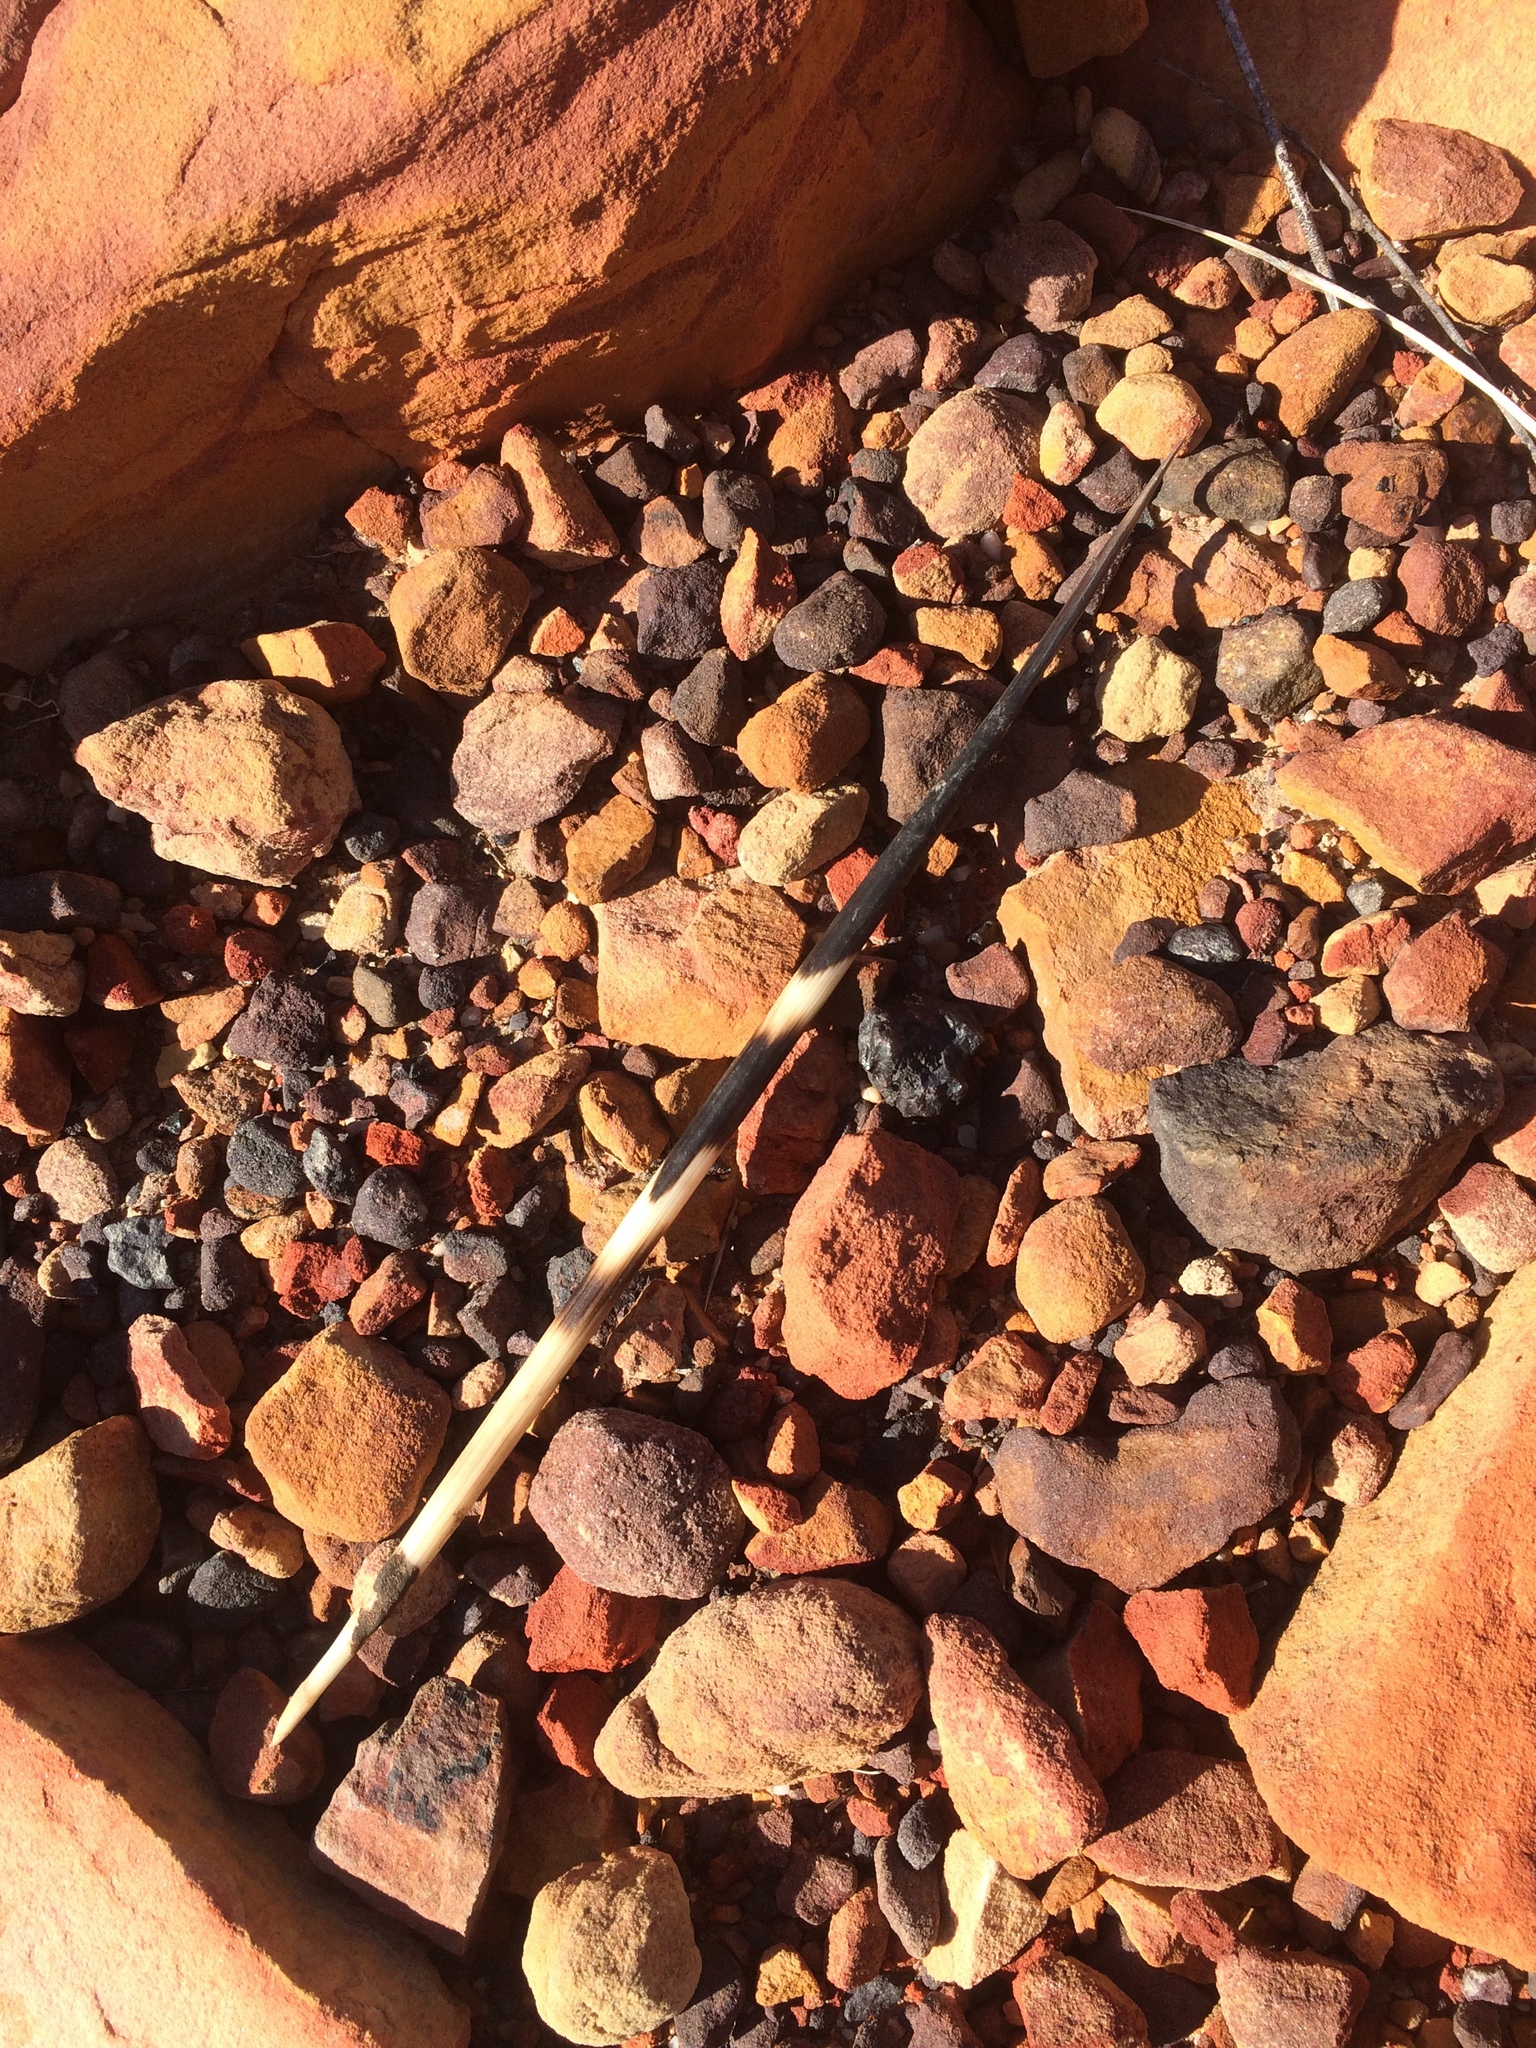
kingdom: Animalia
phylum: Chordata
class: Mammalia
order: Rodentia
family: Hystricidae
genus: Hystrix
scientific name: Hystrix africaeaustralis
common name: Cape porcupine
